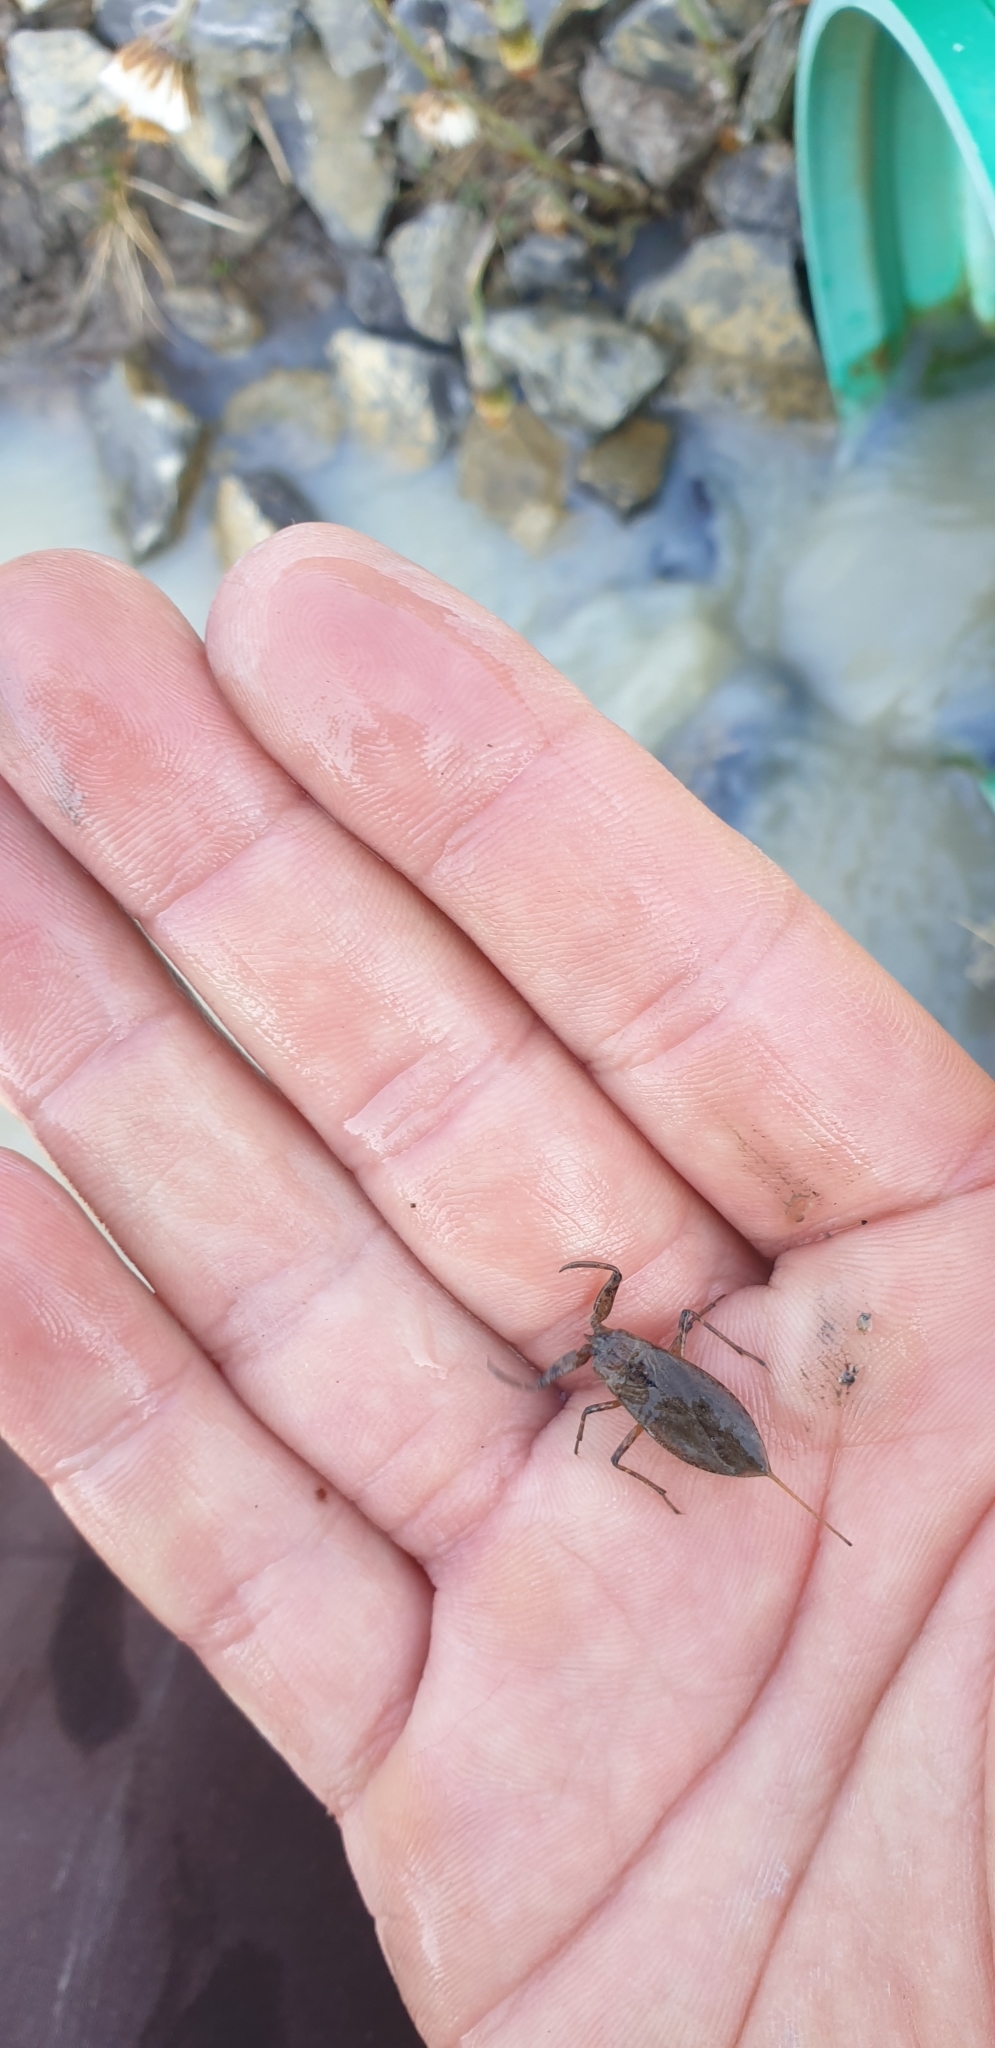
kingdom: Animalia
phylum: Arthropoda
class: Insecta
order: Hemiptera
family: Nepidae
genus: Nepa
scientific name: Nepa cinerea
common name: Water scorpion
